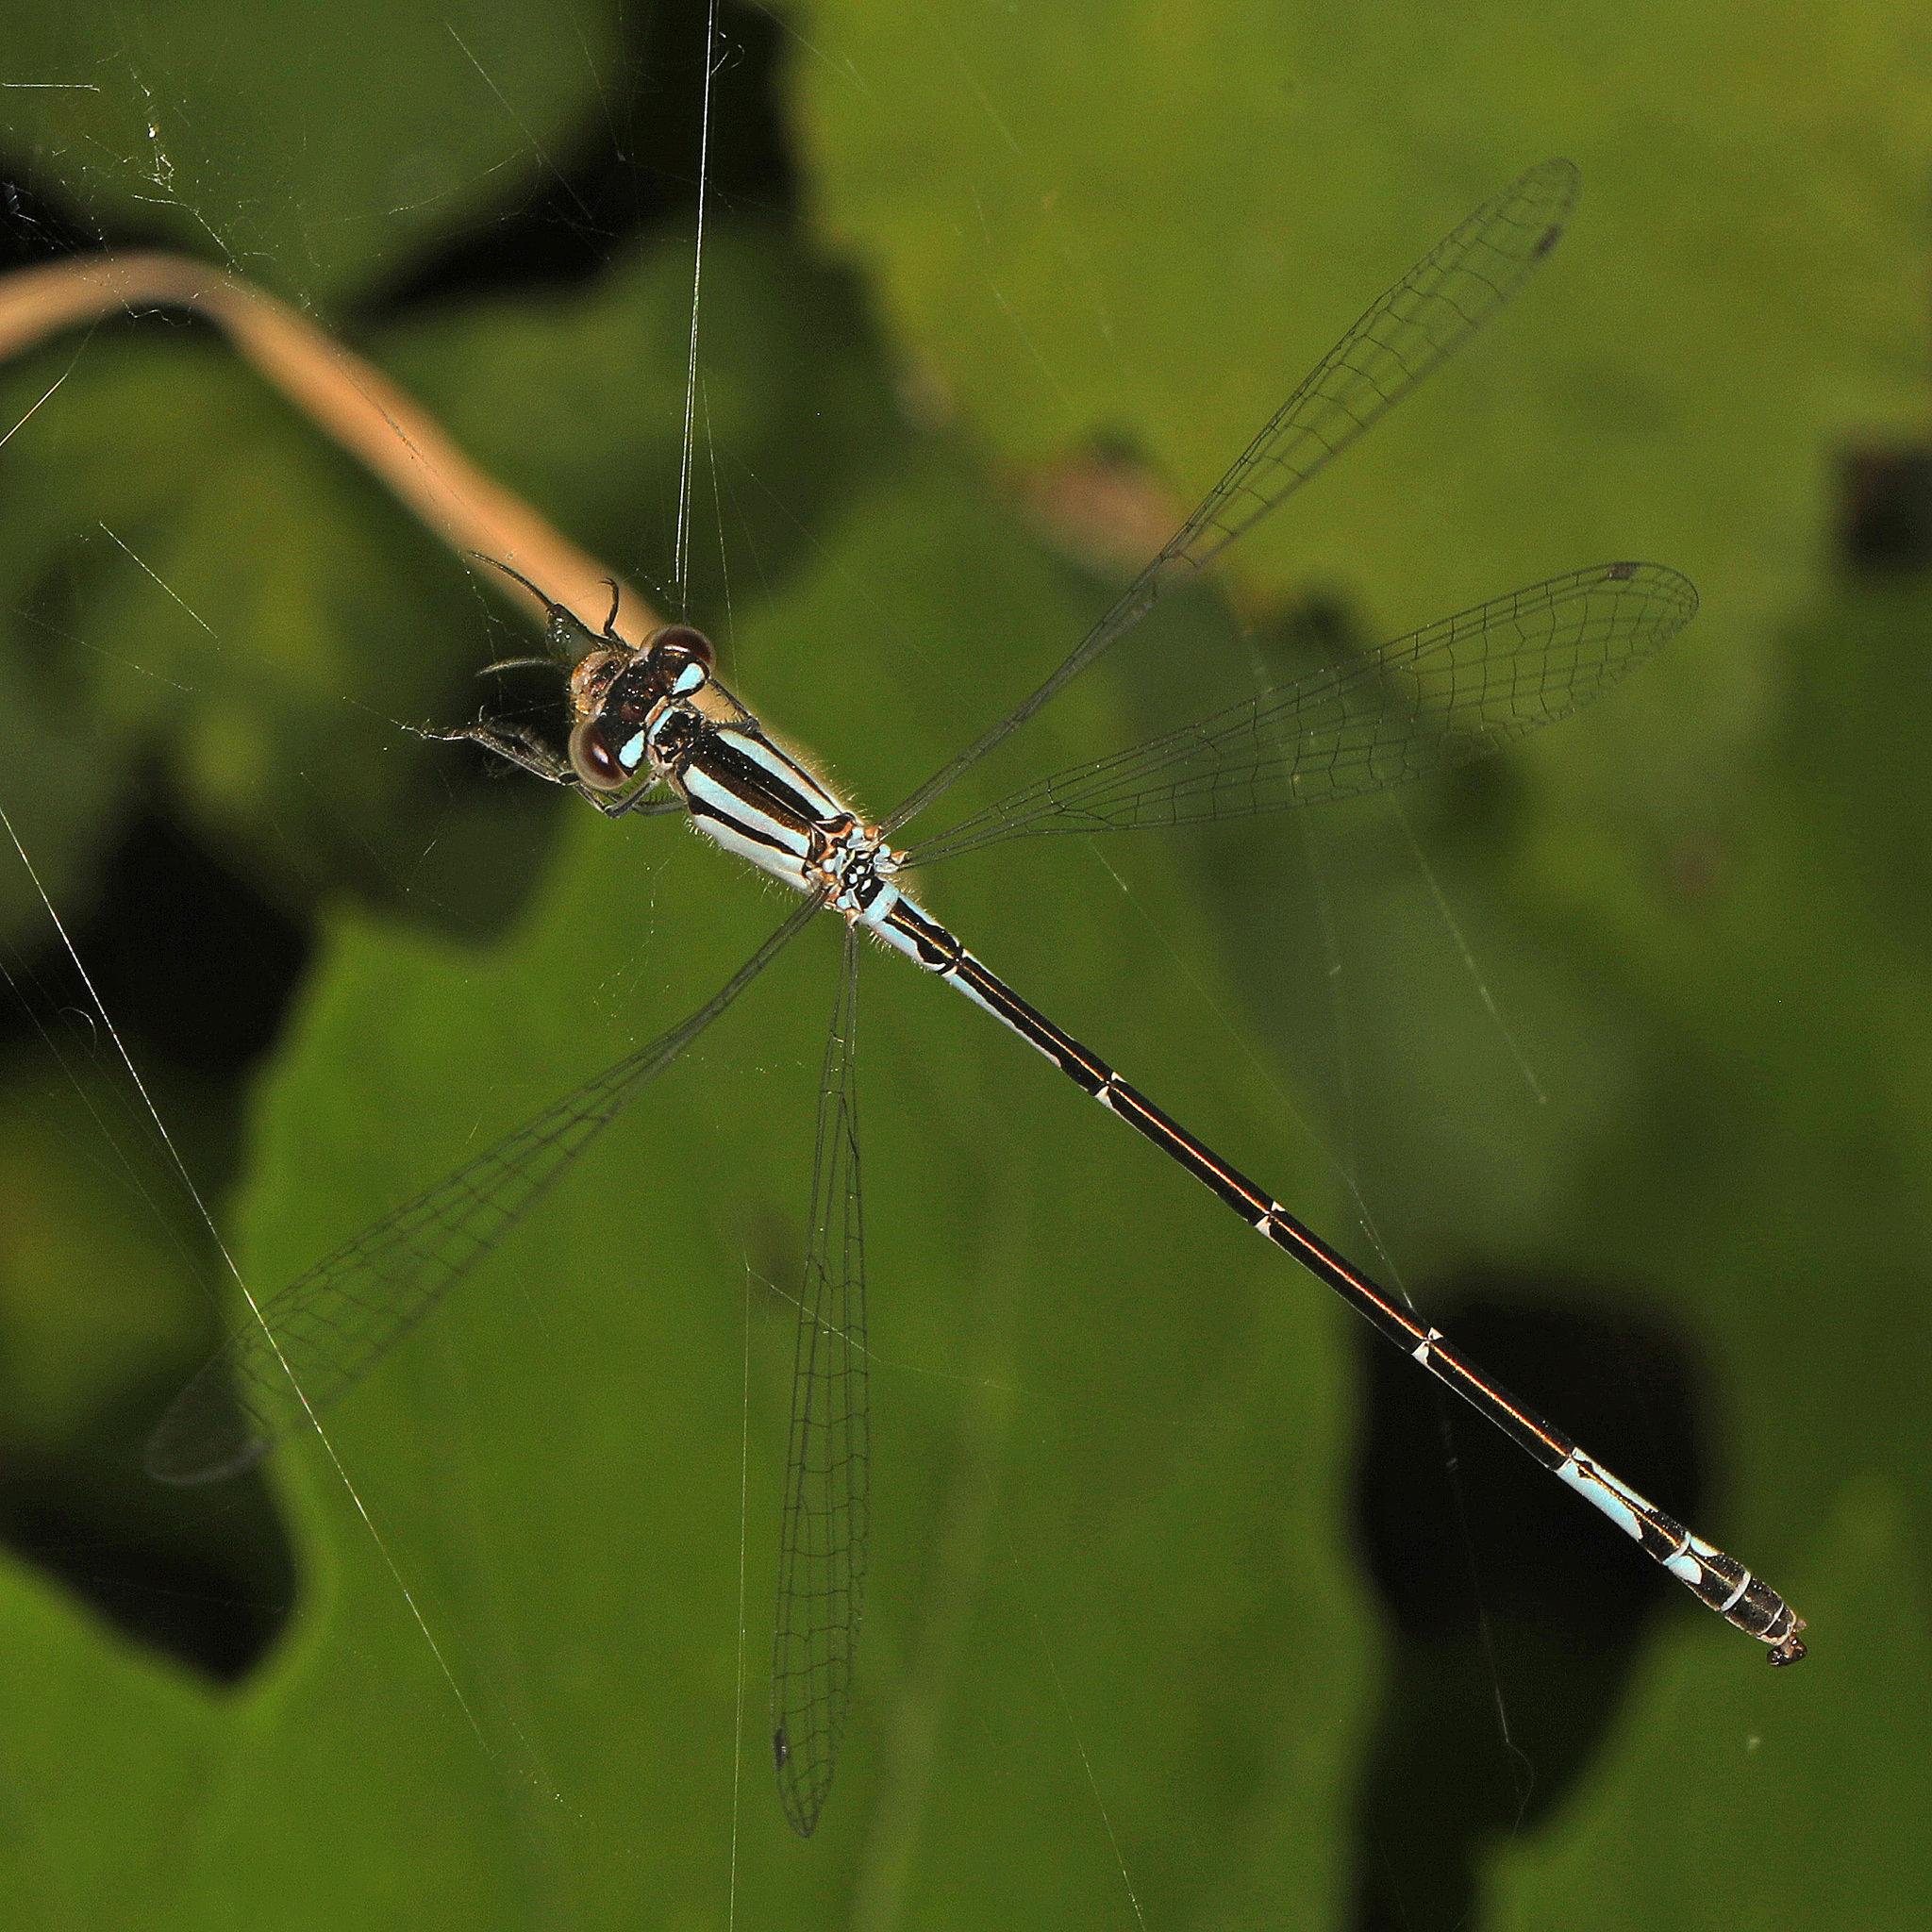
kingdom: Animalia
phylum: Arthropoda
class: Insecta
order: Odonata
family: Coenagrionidae
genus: Enallagma
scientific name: Enallagma aspersum
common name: Azure bluet
